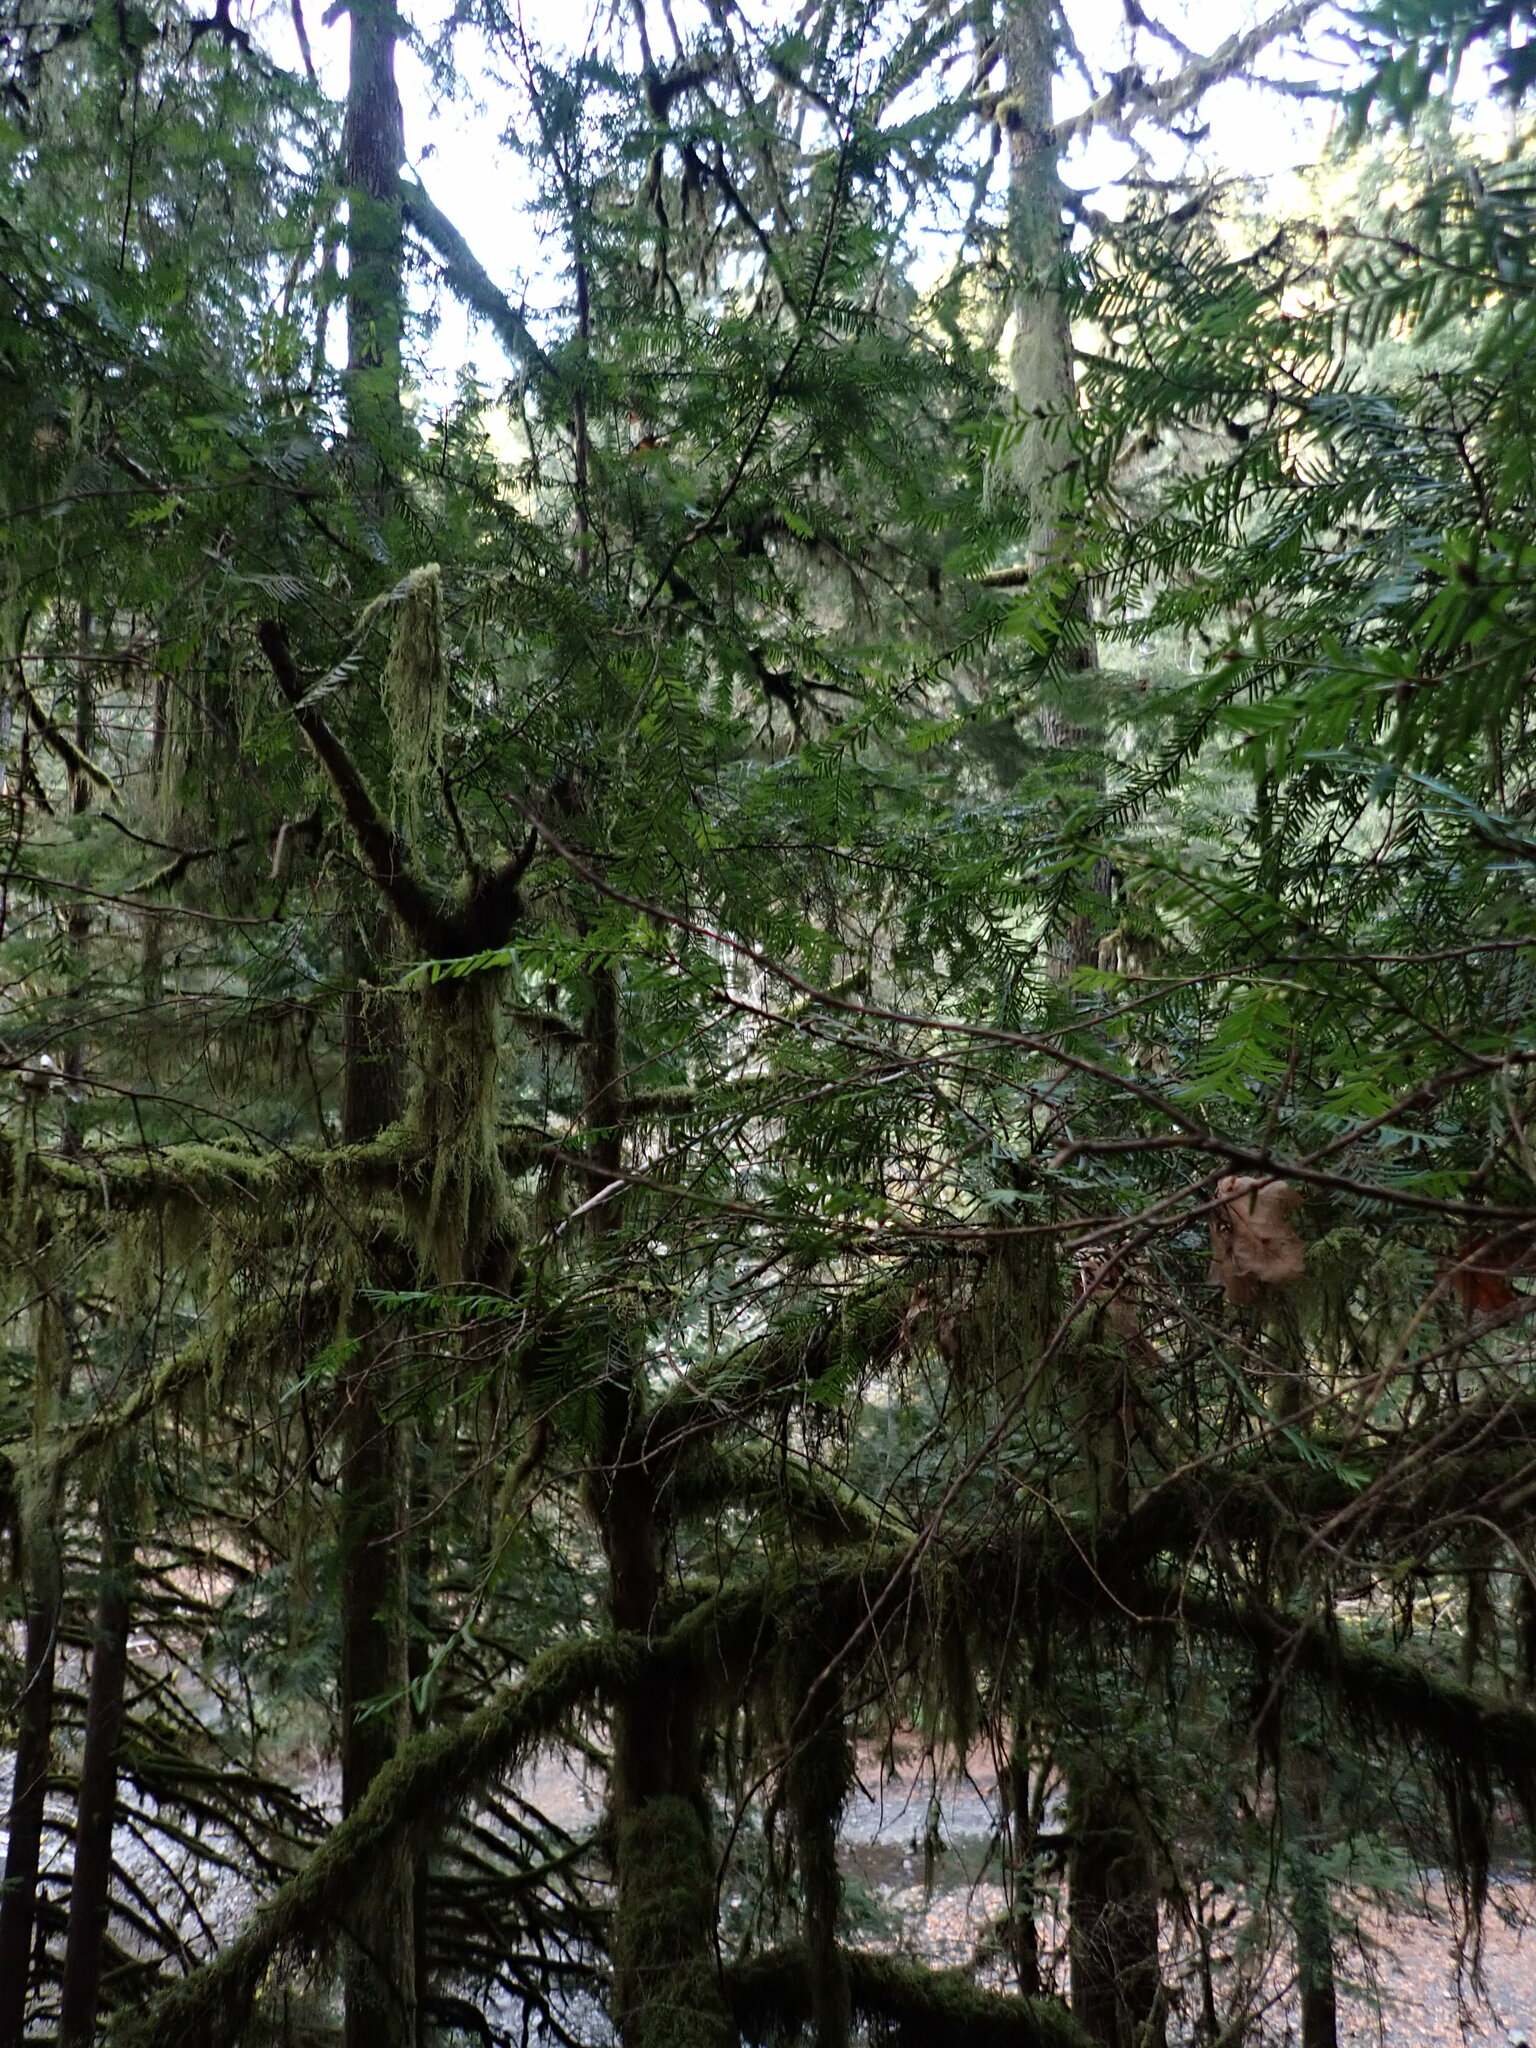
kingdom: Plantae
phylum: Tracheophyta
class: Pinopsida
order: Pinales
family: Taxaceae
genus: Taxus
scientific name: Taxus brevifolia
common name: Pacific yew
